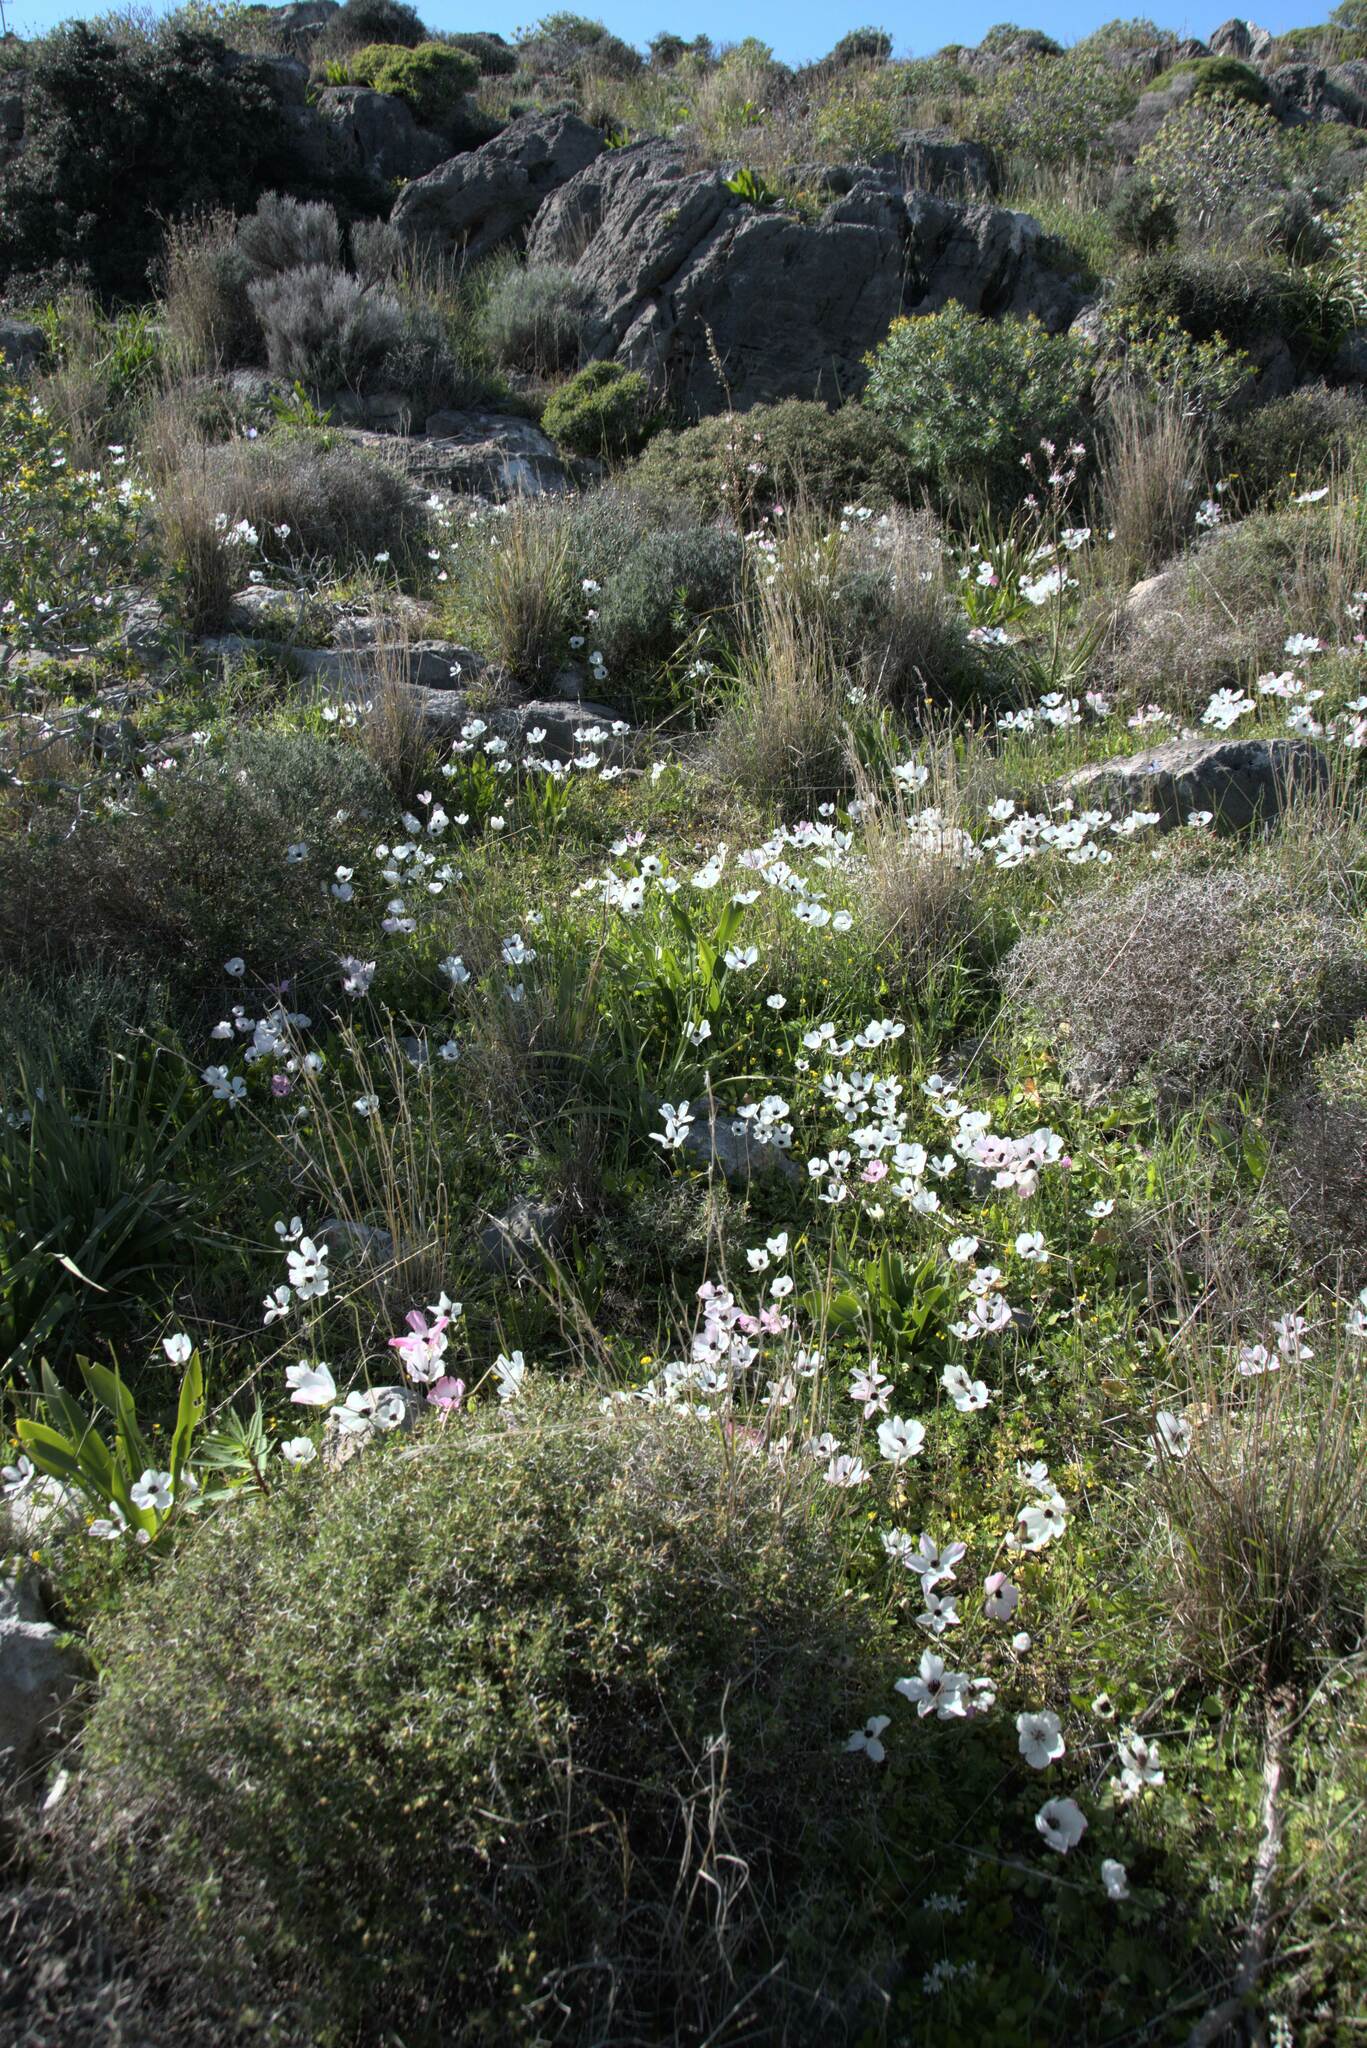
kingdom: Plantae
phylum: Tracheophyta
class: Magnoliopsida
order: Ranunculales
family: Ranunculaceae
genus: Ranunculus
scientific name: Ranunculus asiaticus
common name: Persian buttercup
